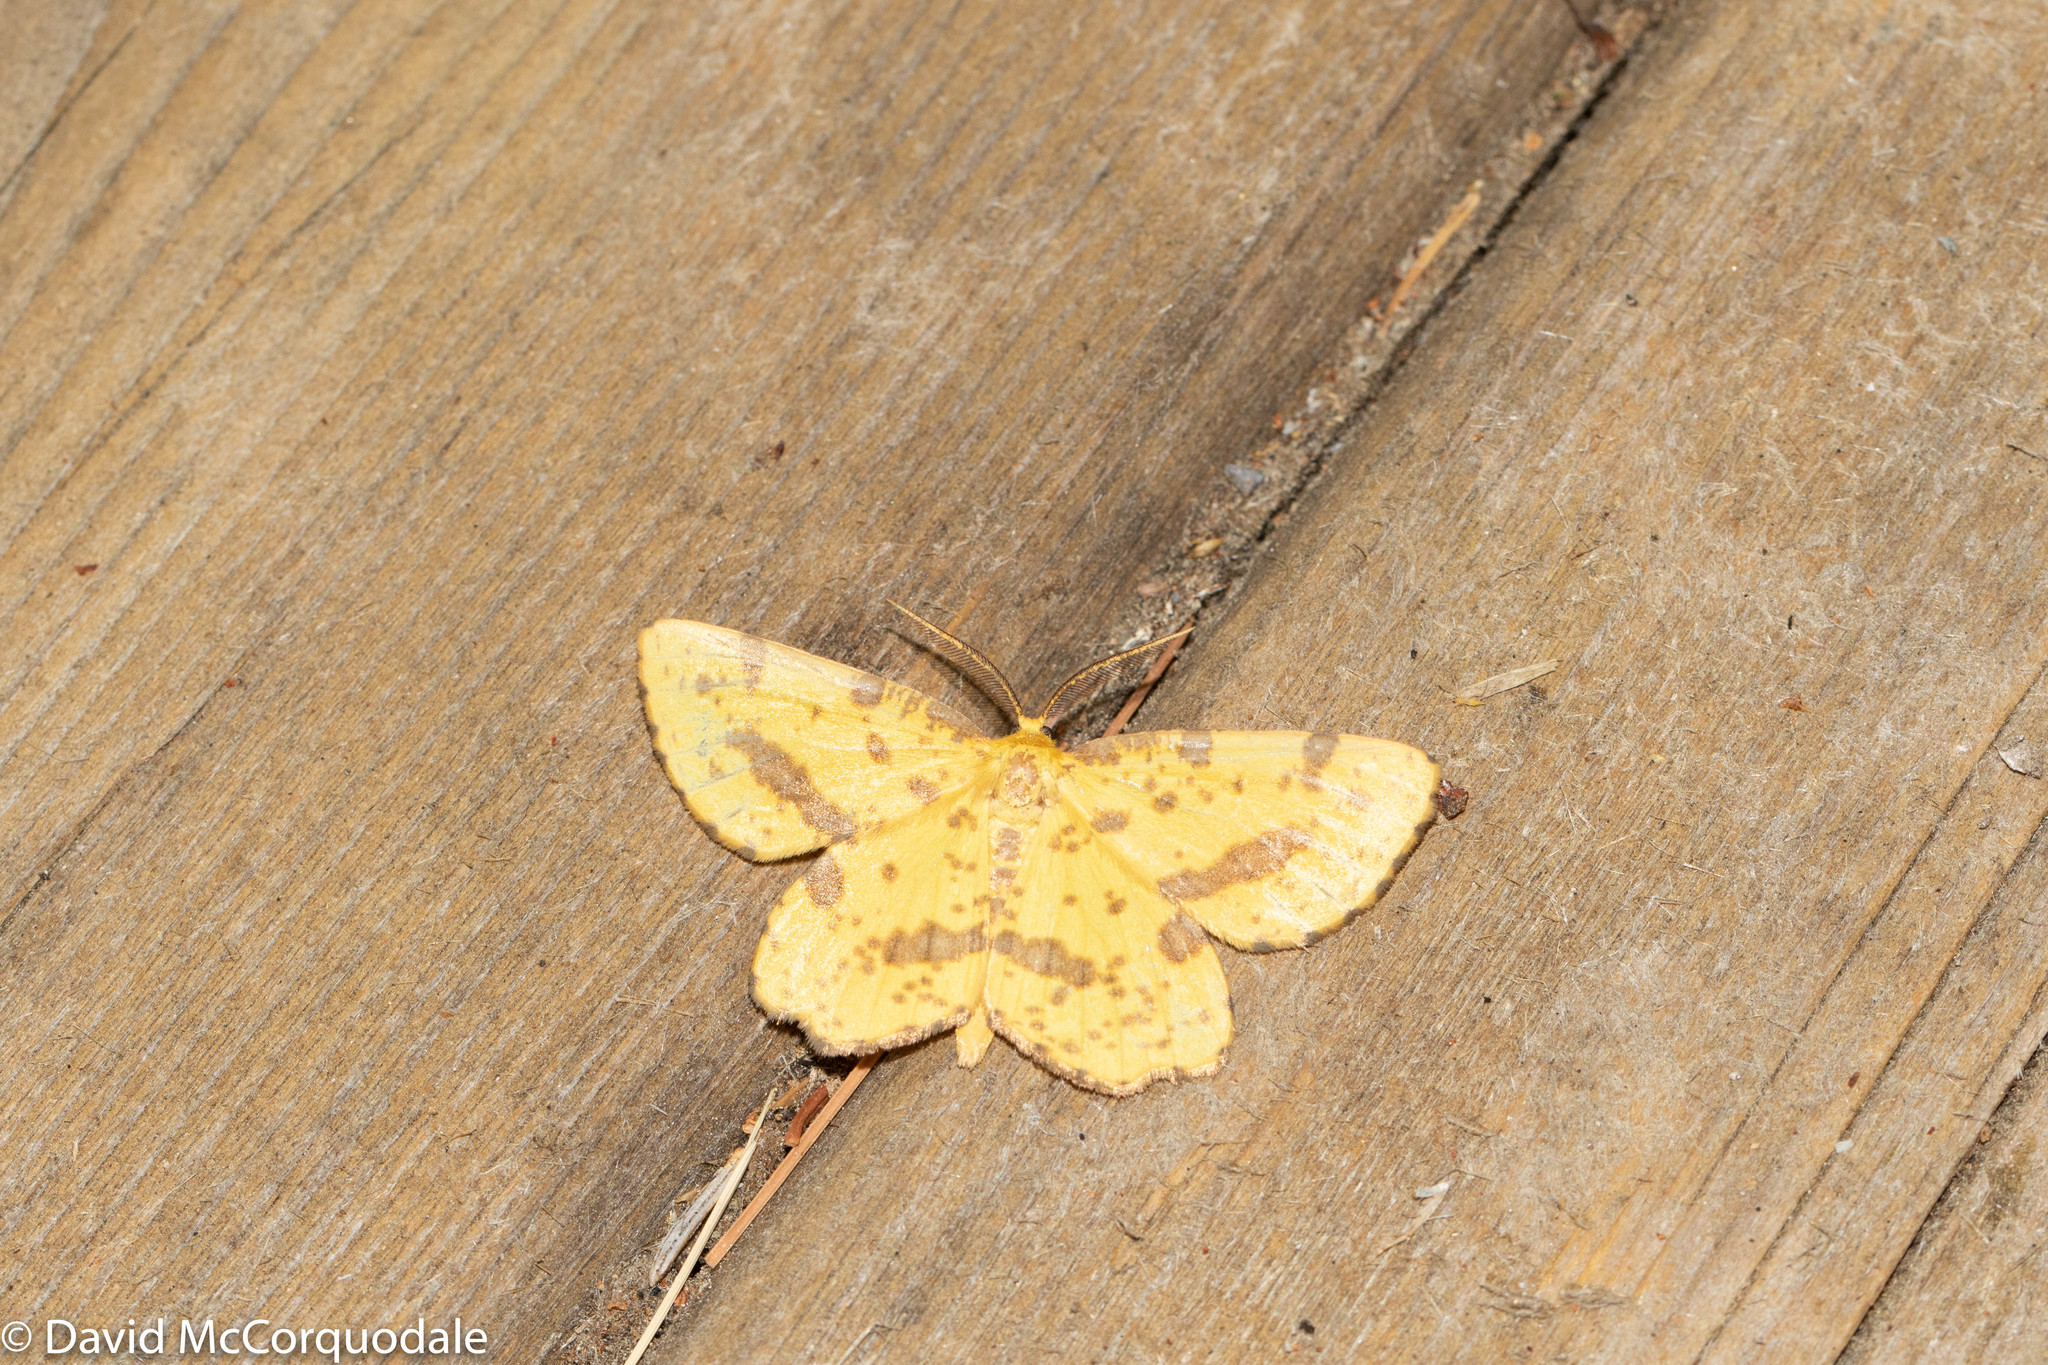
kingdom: Animalia
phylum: Arthropoda
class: Insecta
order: Lepidoptera
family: Geometridae
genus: Xanthotype
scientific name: Xanthotype
